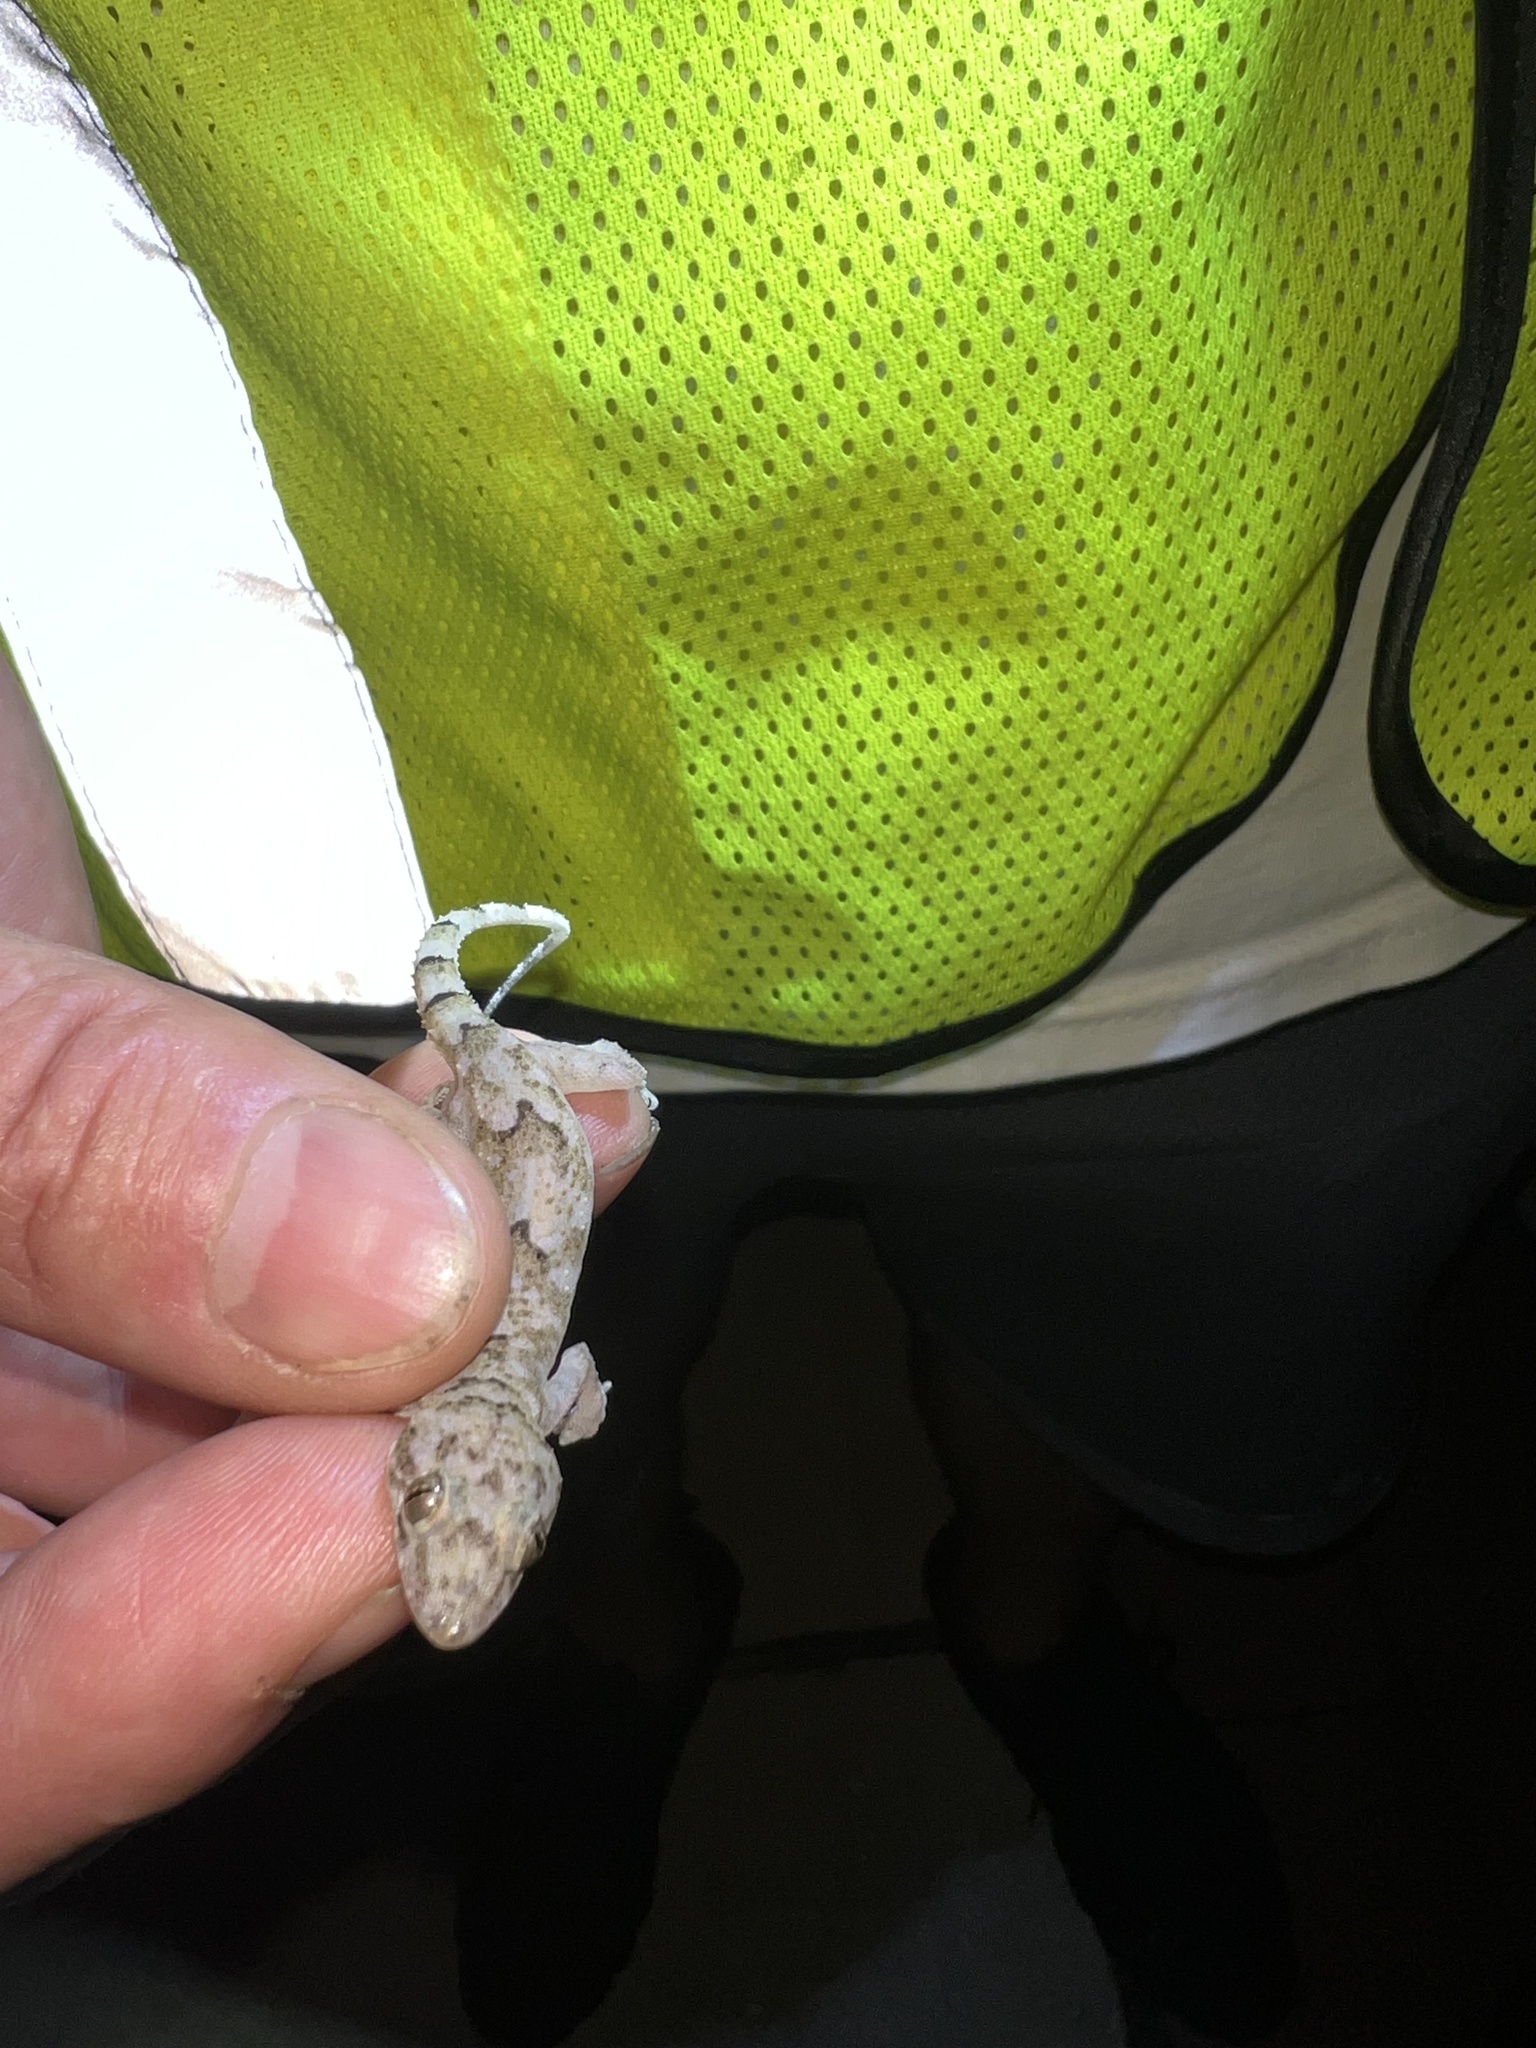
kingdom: Animalia
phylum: Chordata
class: Squamata
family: Gekkonidae
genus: Hemidactylus
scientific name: Hemidactylus mabouia
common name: House gecko
